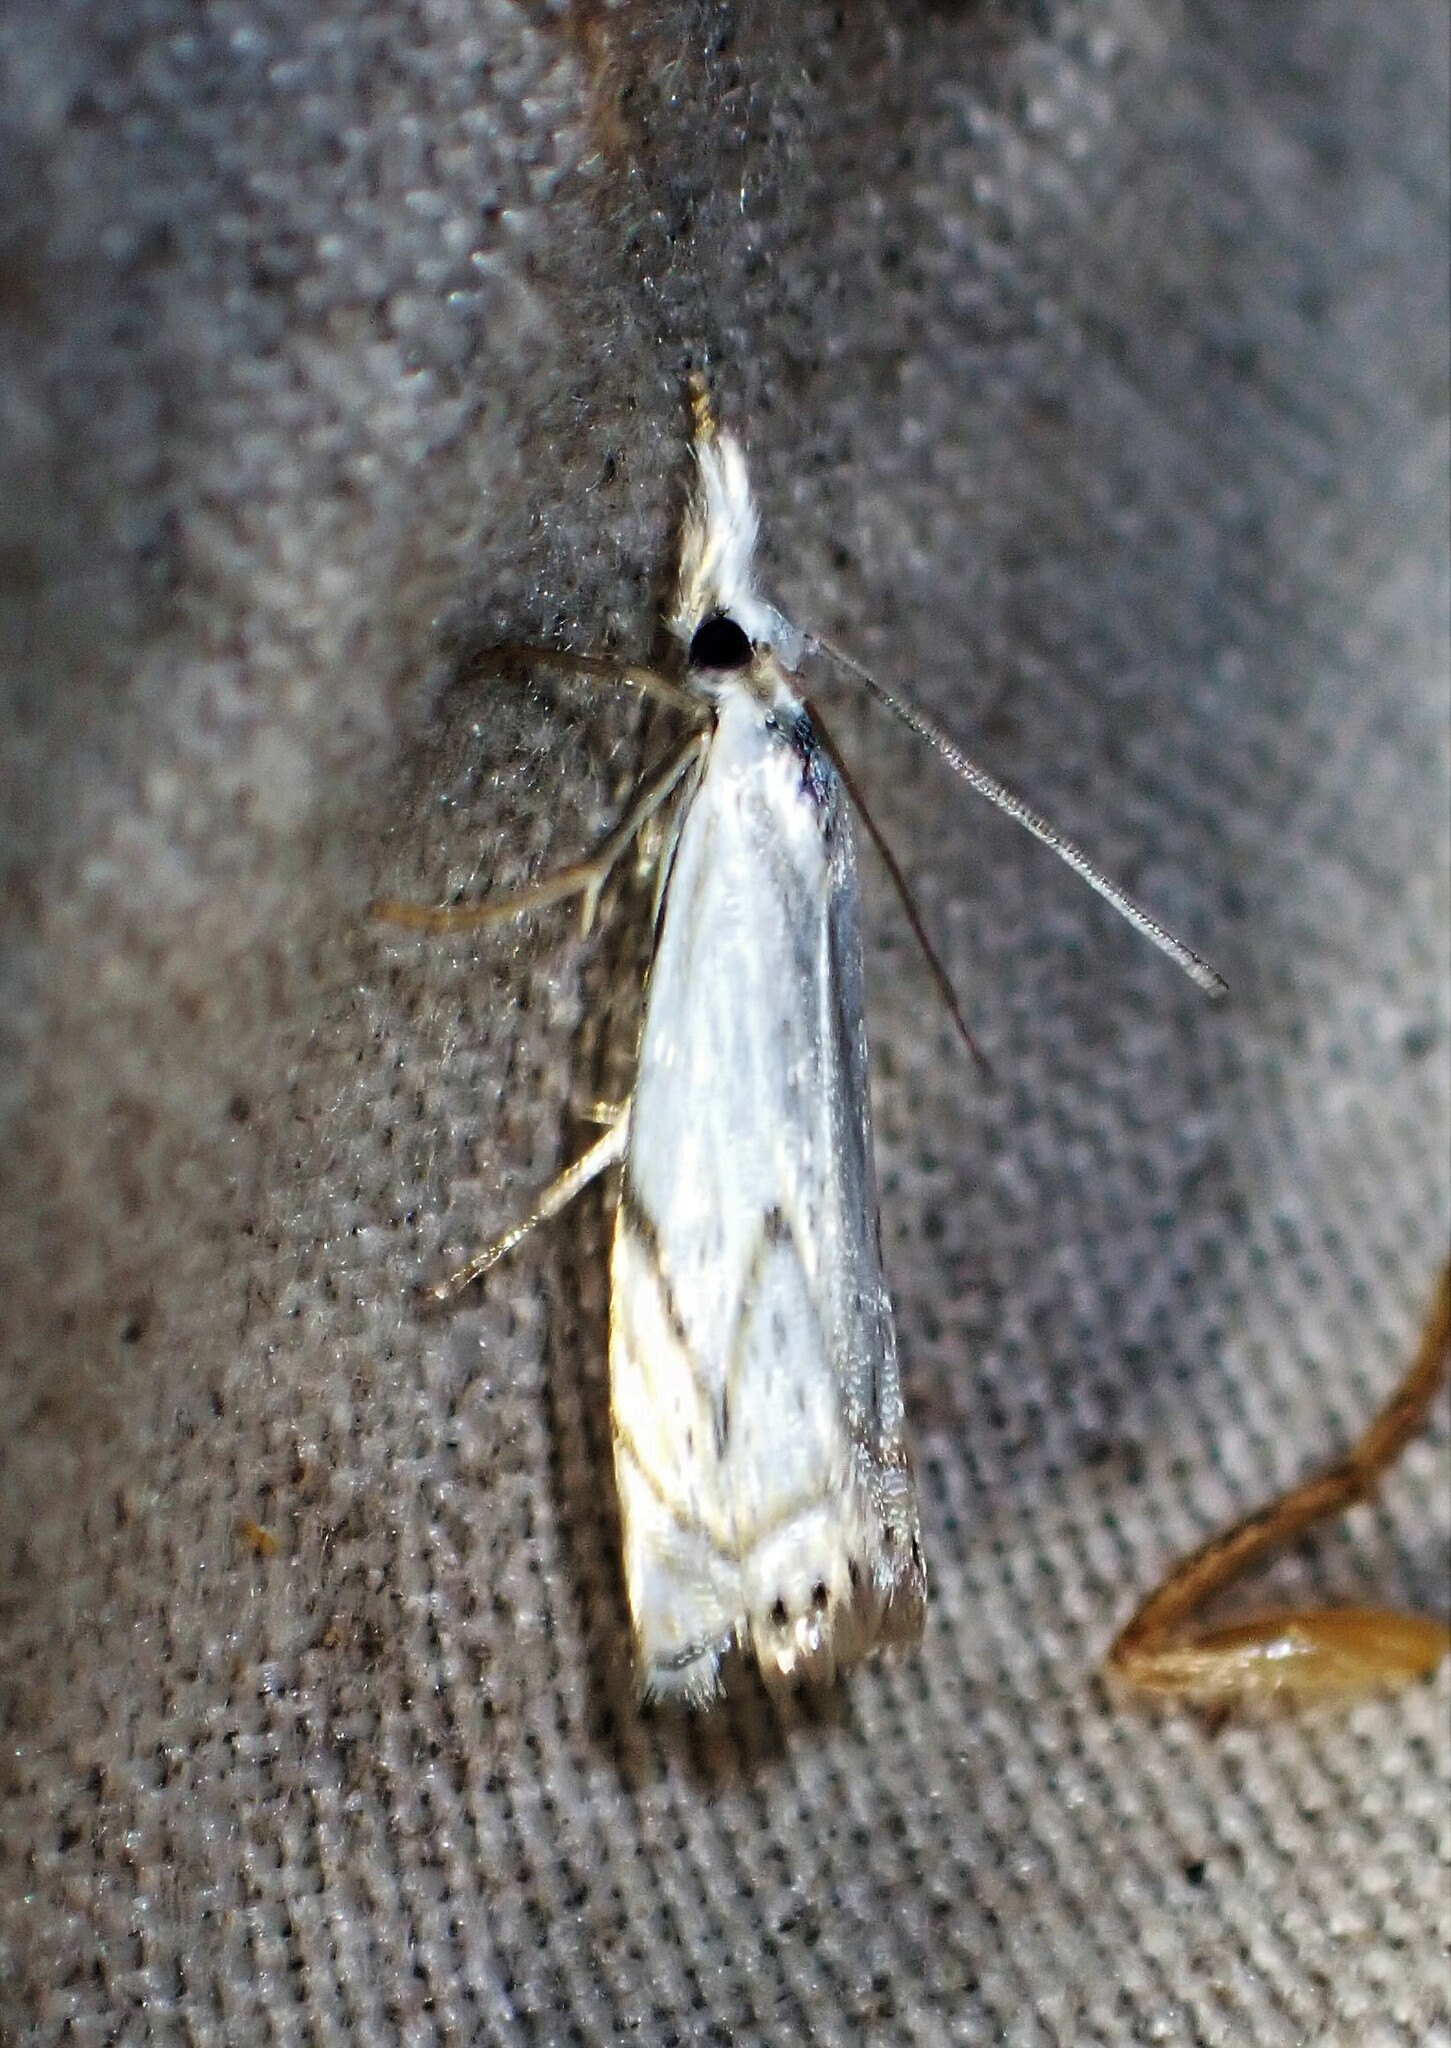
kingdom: Animalia
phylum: Arthropoda
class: Insecta
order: Lepidoptera
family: Crambidae
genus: Crambus
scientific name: Crambus albellus
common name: Small white grass-veneer
